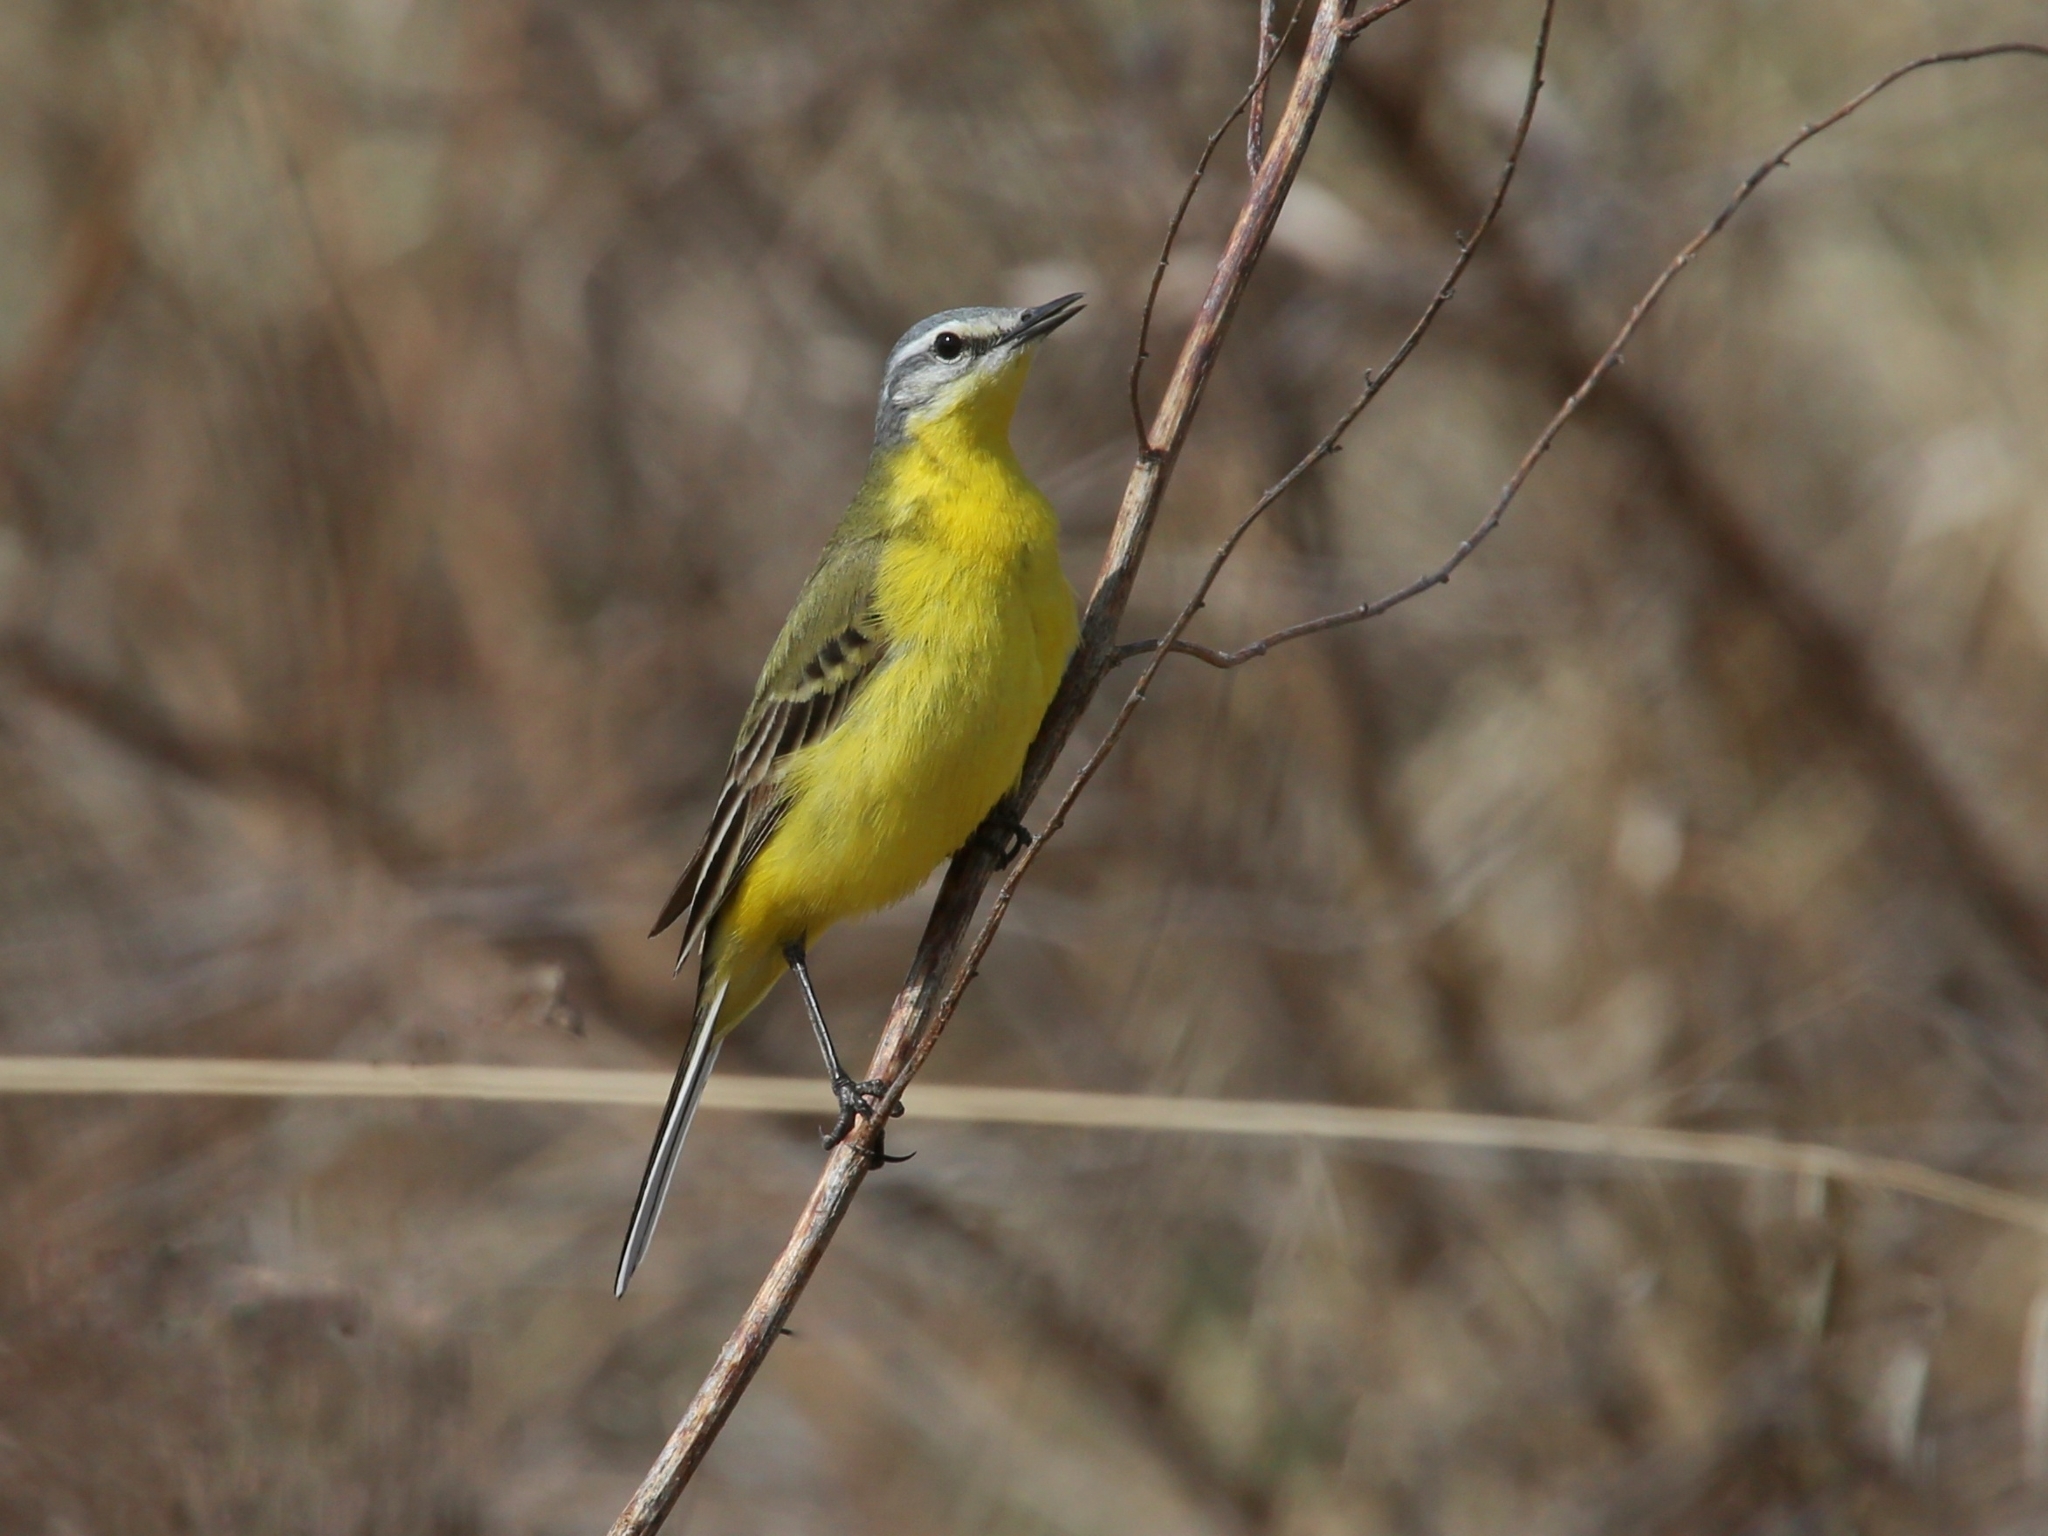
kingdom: Animalia
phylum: Chordata
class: Aves
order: Passeriformes
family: Motacillidae
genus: Motacilla
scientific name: Motacilla flava
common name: Western yellow wagtail
